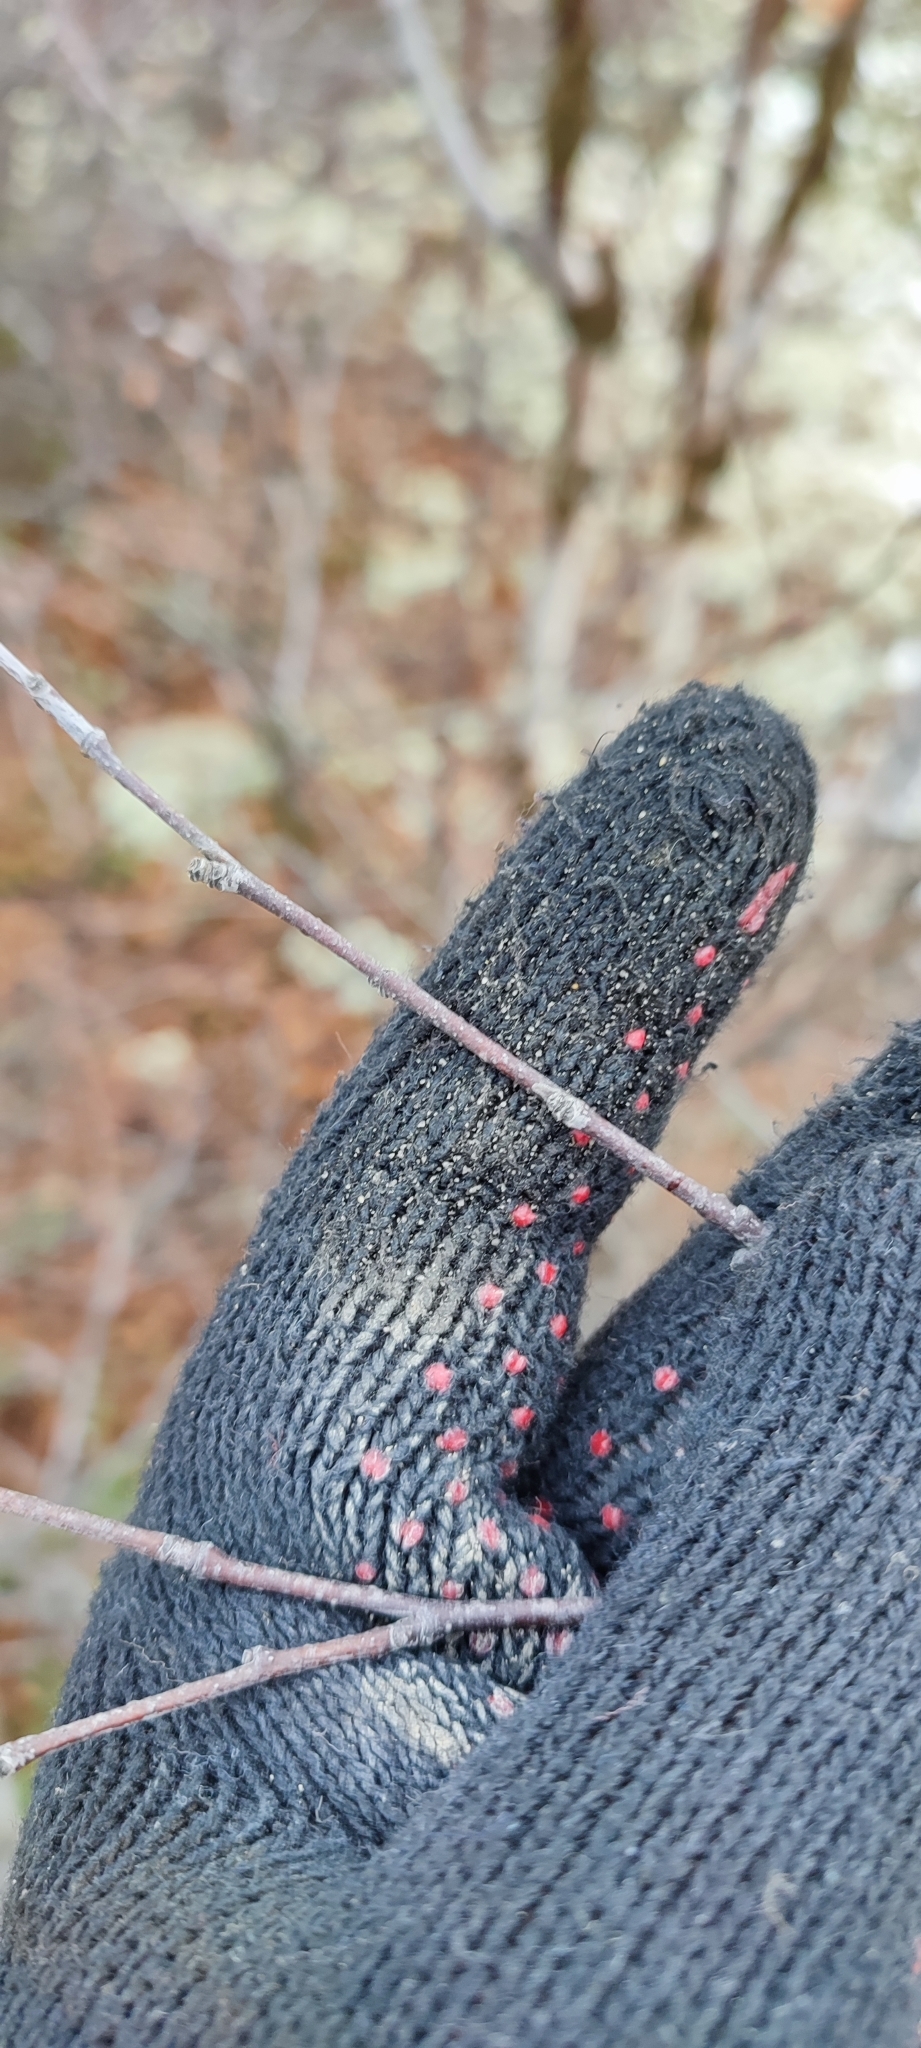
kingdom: Plantae
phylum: Tracheophyta
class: Magnoliopsida
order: Fagales
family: Betulaceae
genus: Betula
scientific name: Betula pubescens
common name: Downy birch
